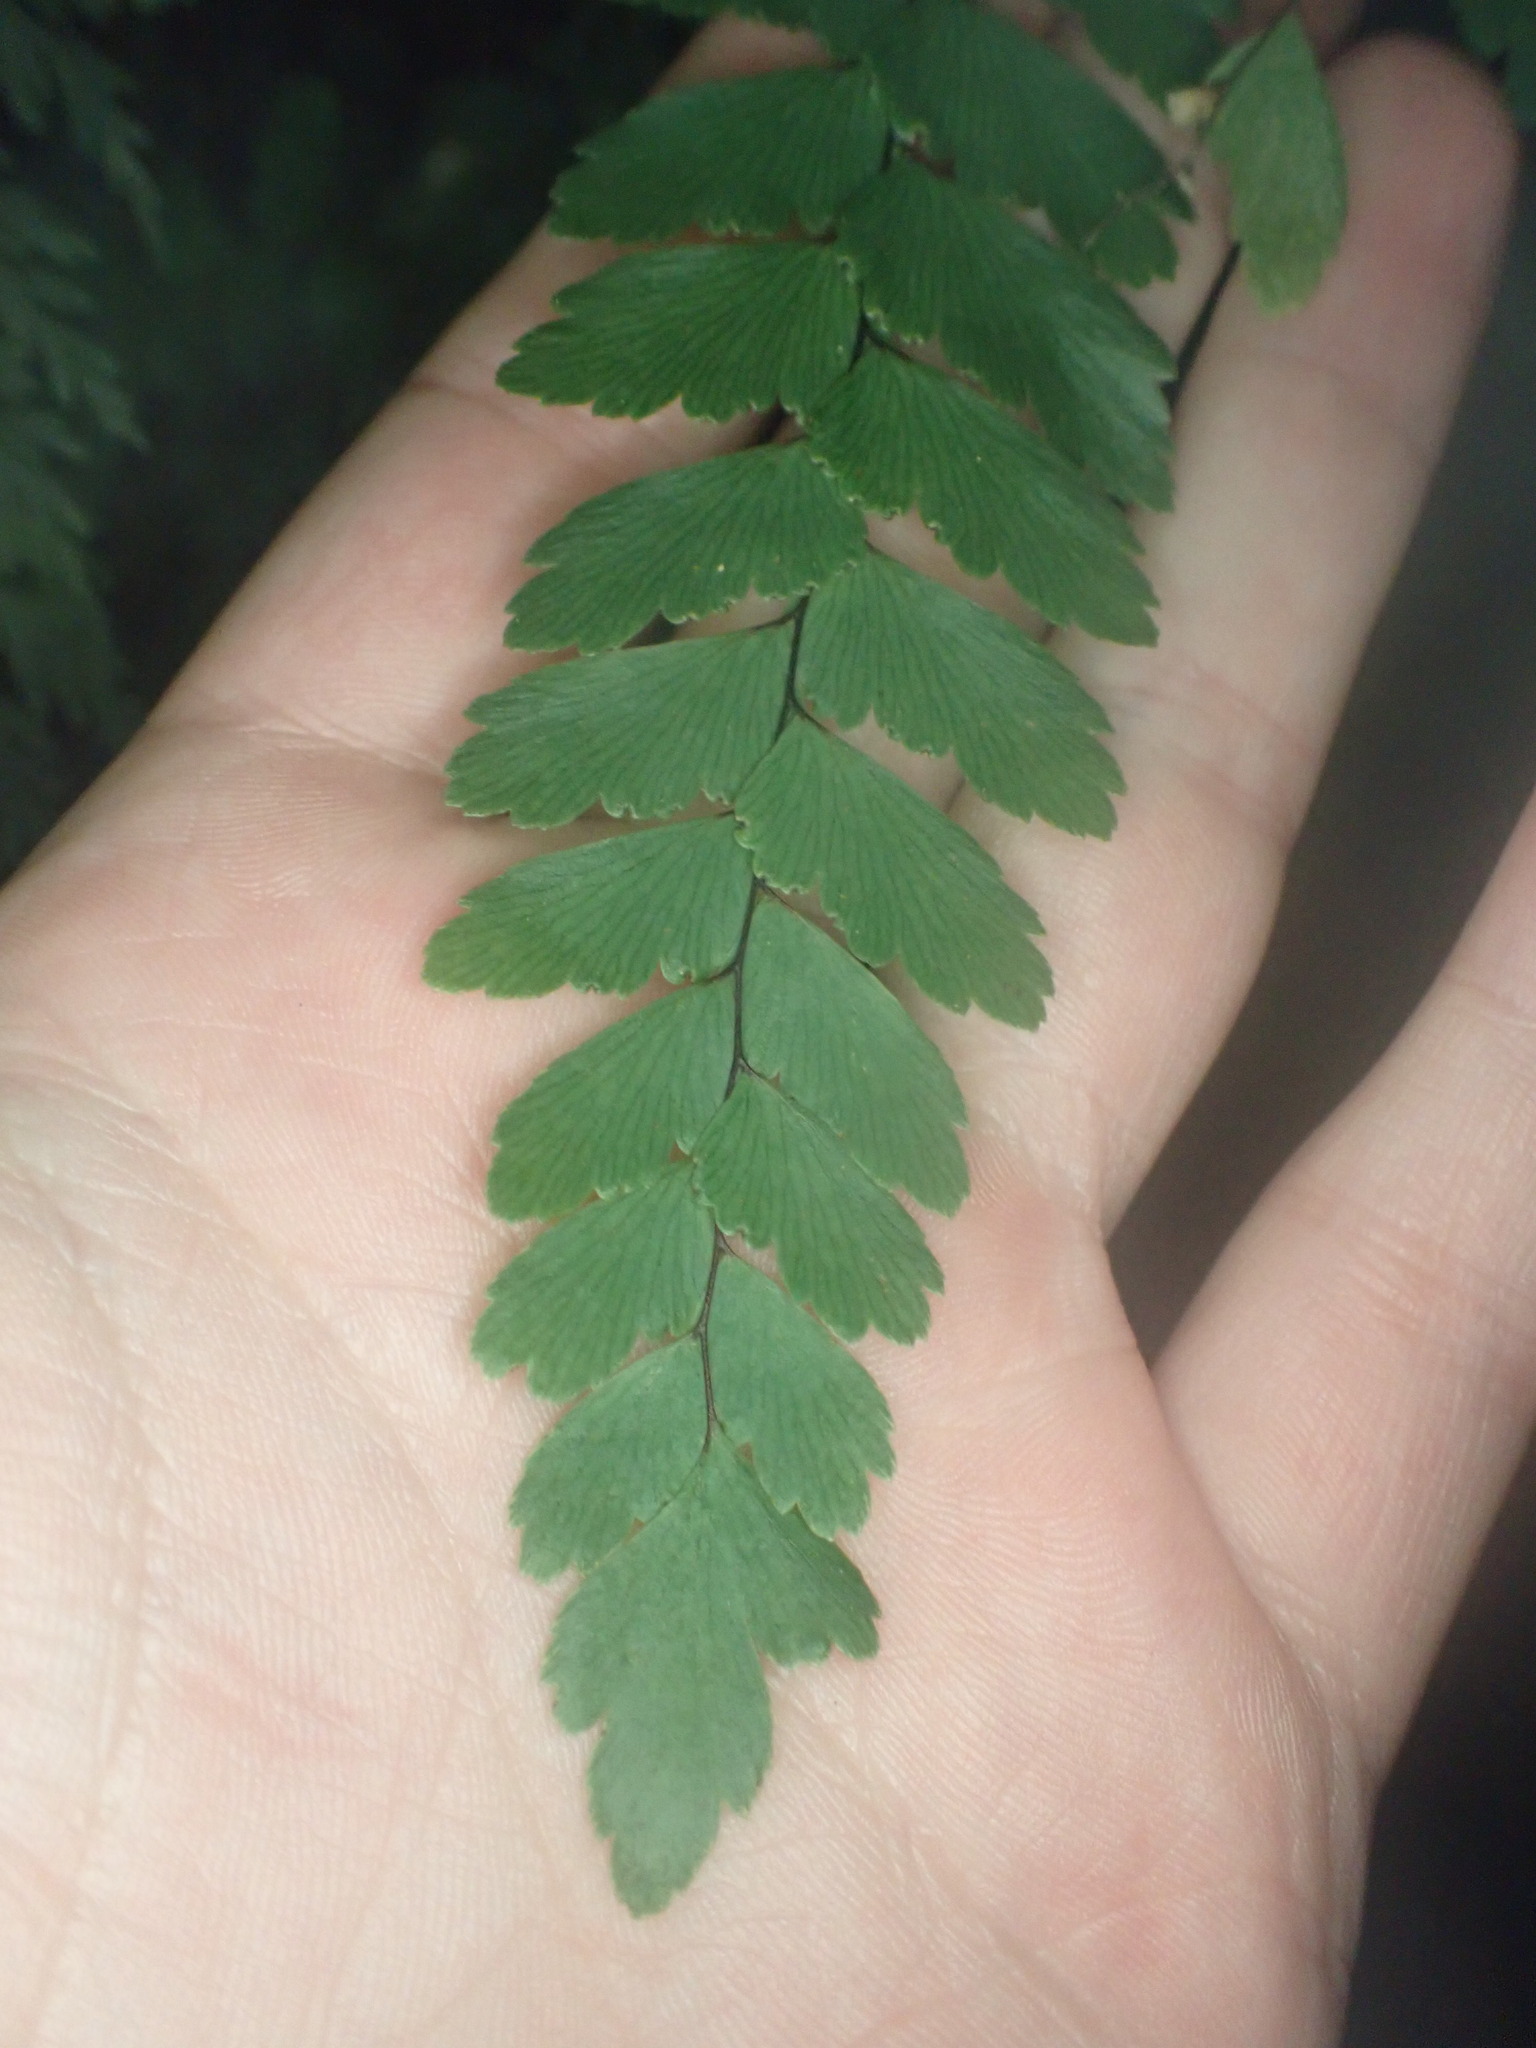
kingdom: Plantae
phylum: Tracheophyta
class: Polypodiopsida
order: Polypodiales
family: Pteridaceae
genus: Adiantum
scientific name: Adiantum cunninghamii
